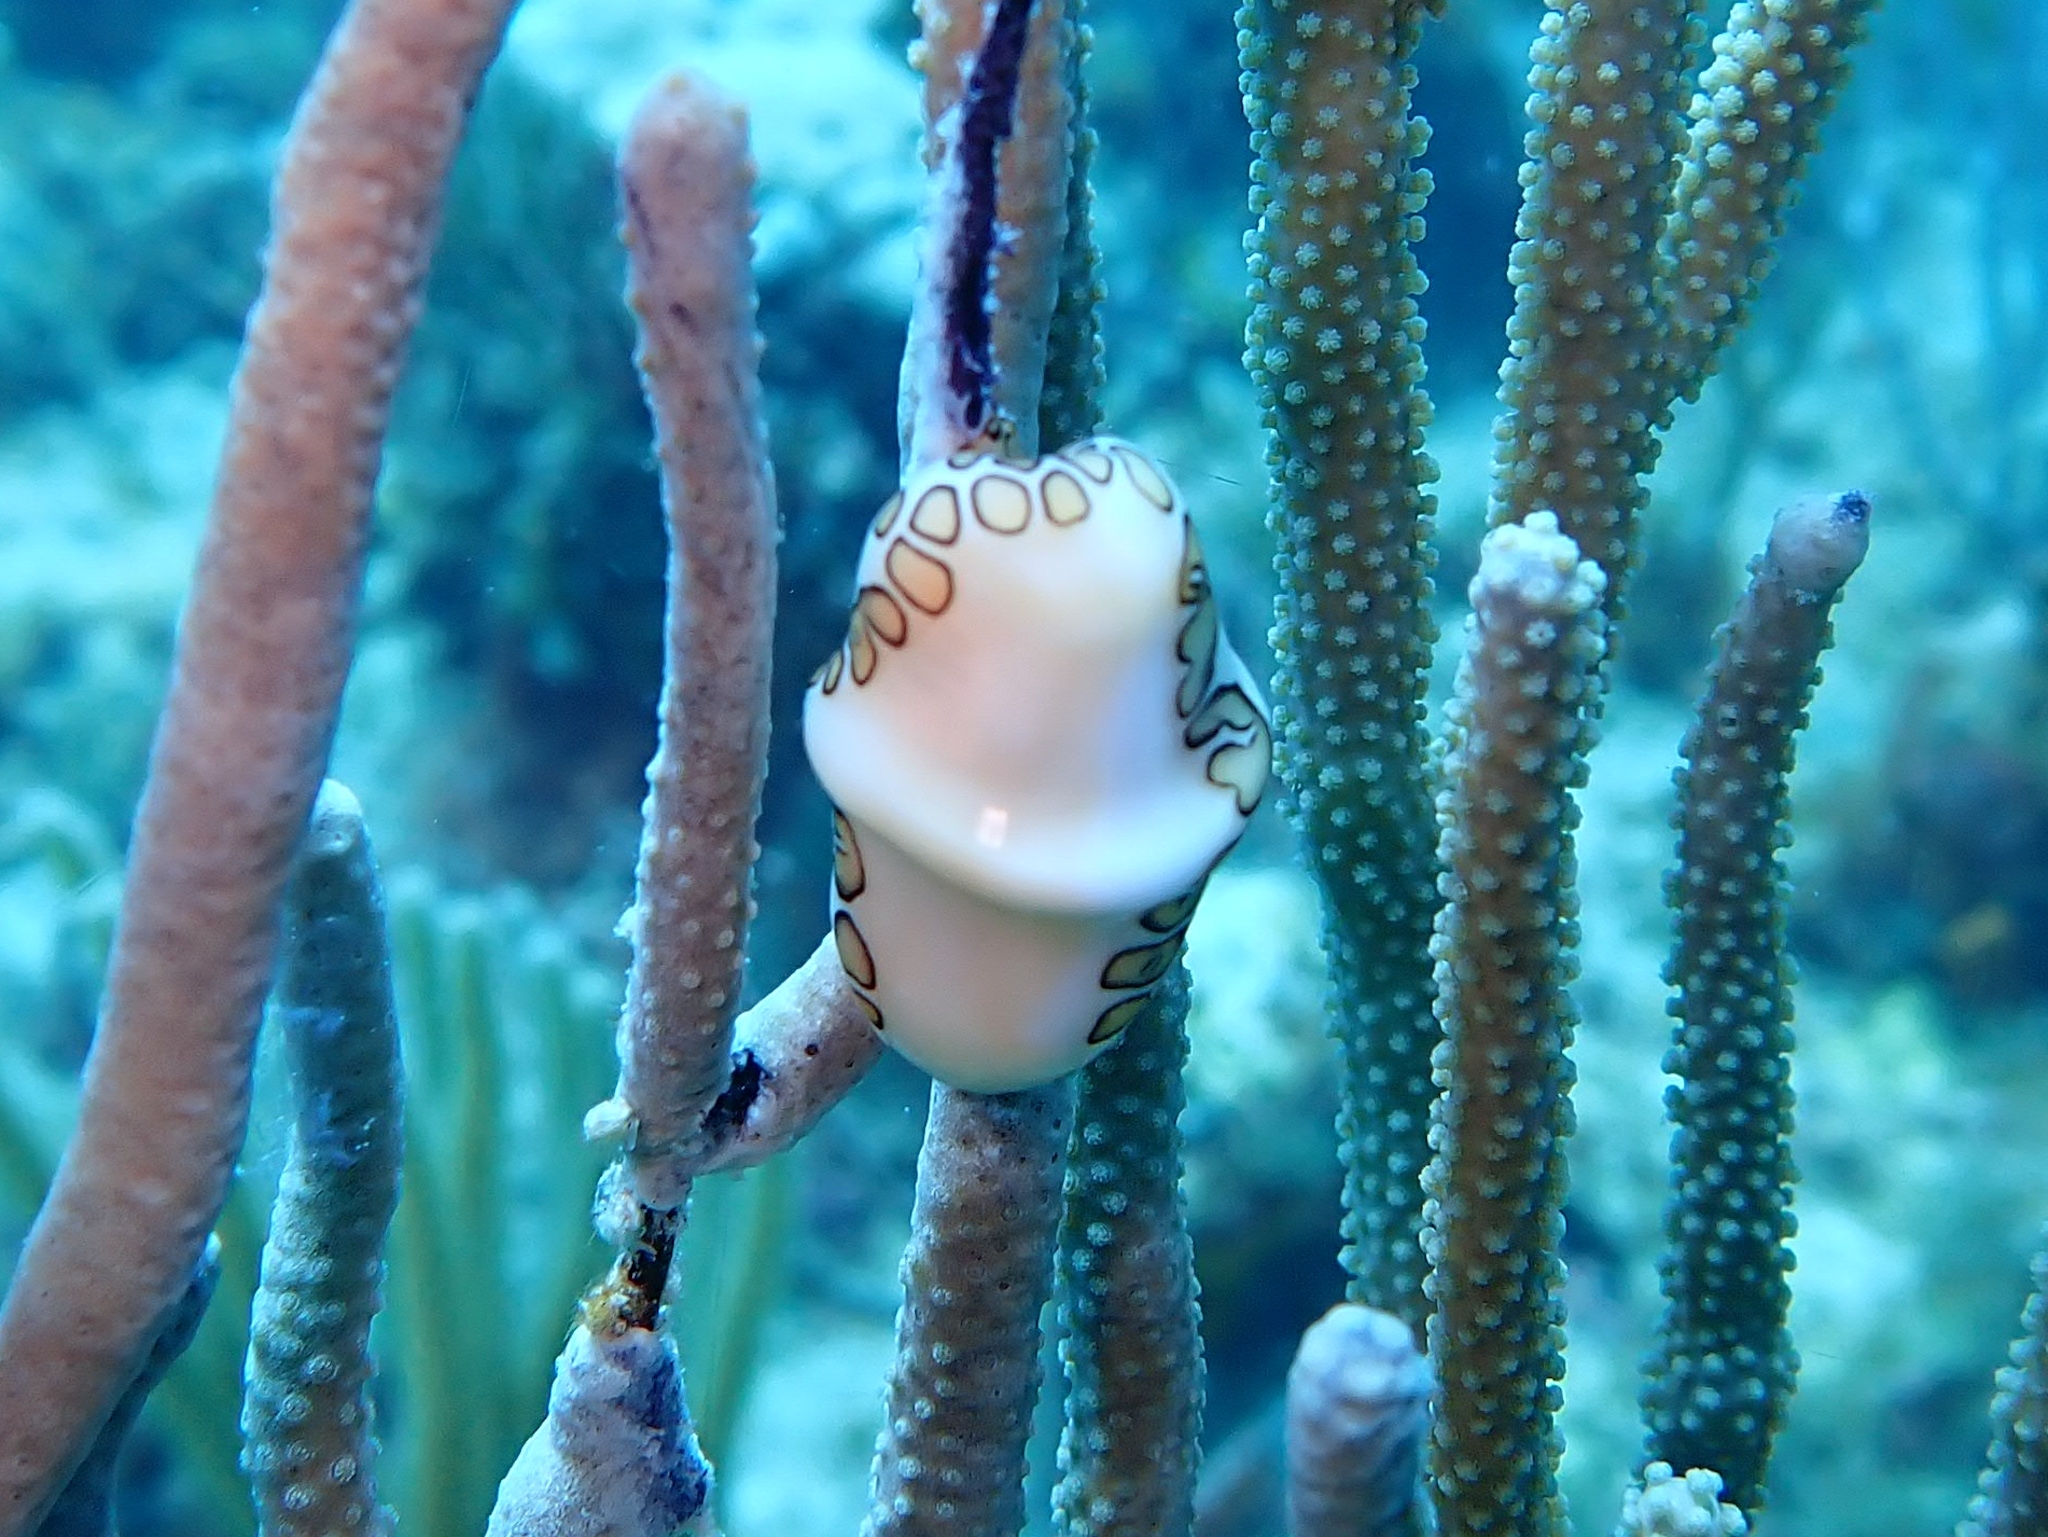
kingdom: Animalia
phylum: Mollusca
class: Gastropoda
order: Littorinimorpha
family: Ovulidae
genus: Cyphoma
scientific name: Cyphoma gibbosum
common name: Flamingo tongue
